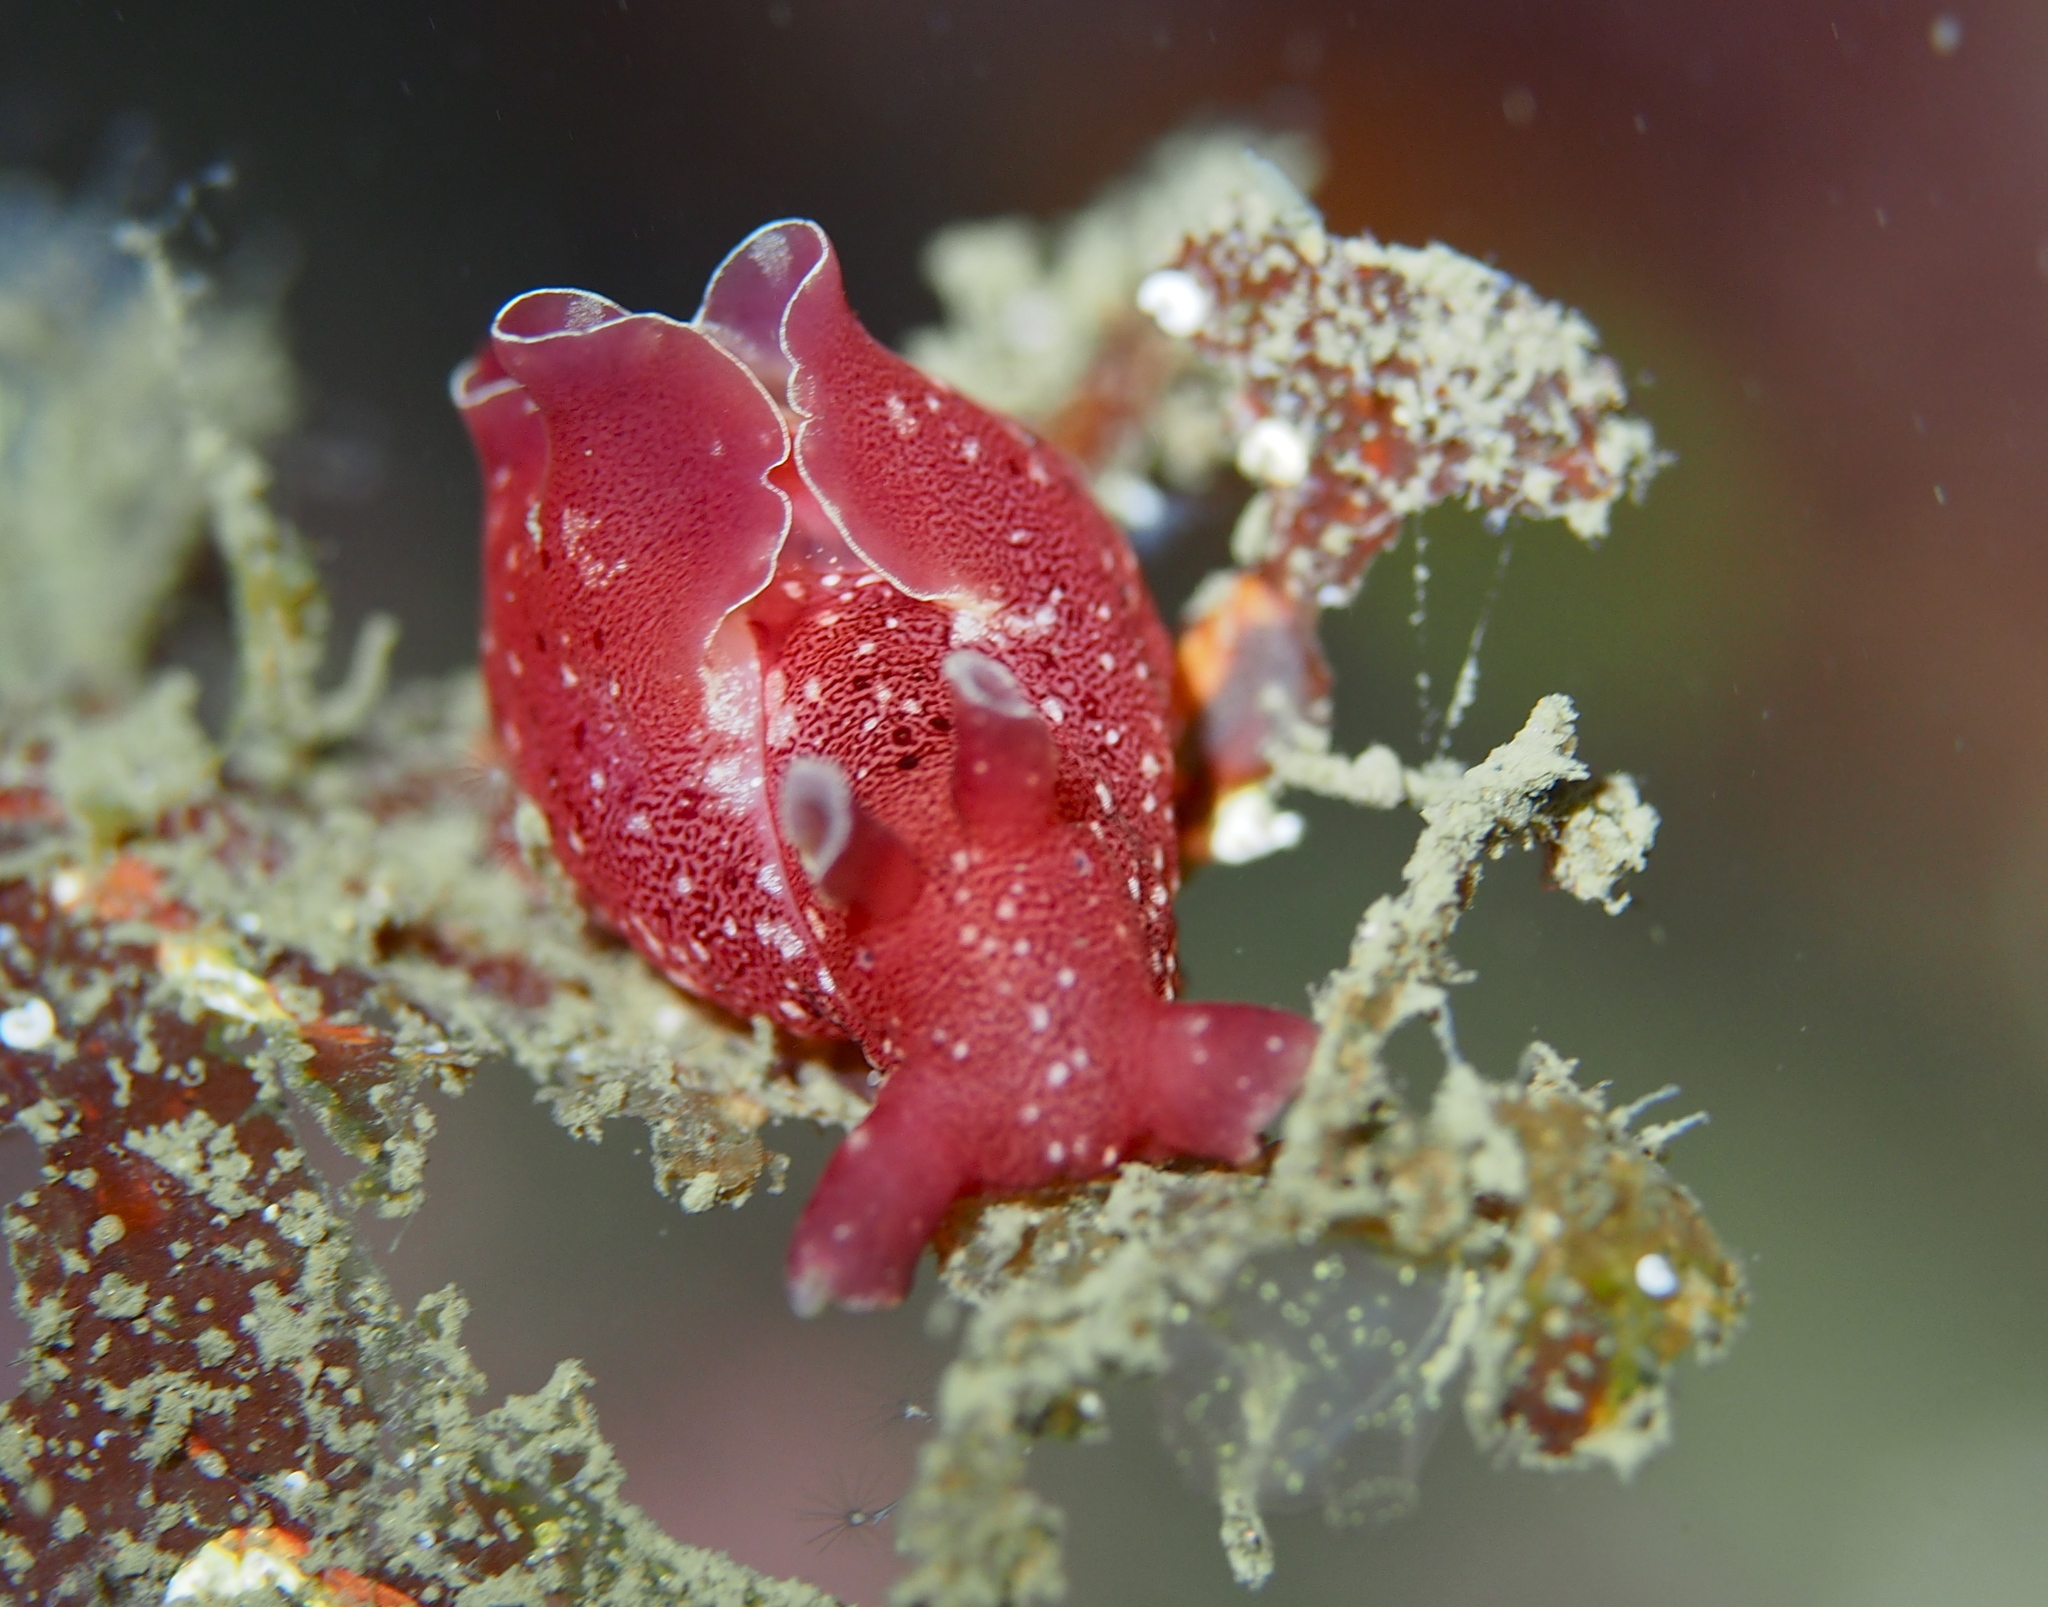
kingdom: Animalia
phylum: Mollusca
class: Gastropoda
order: Aplysiida
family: Aplysiidae
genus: Aplysia
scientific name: Aplysia punctata
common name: Common sea hare
